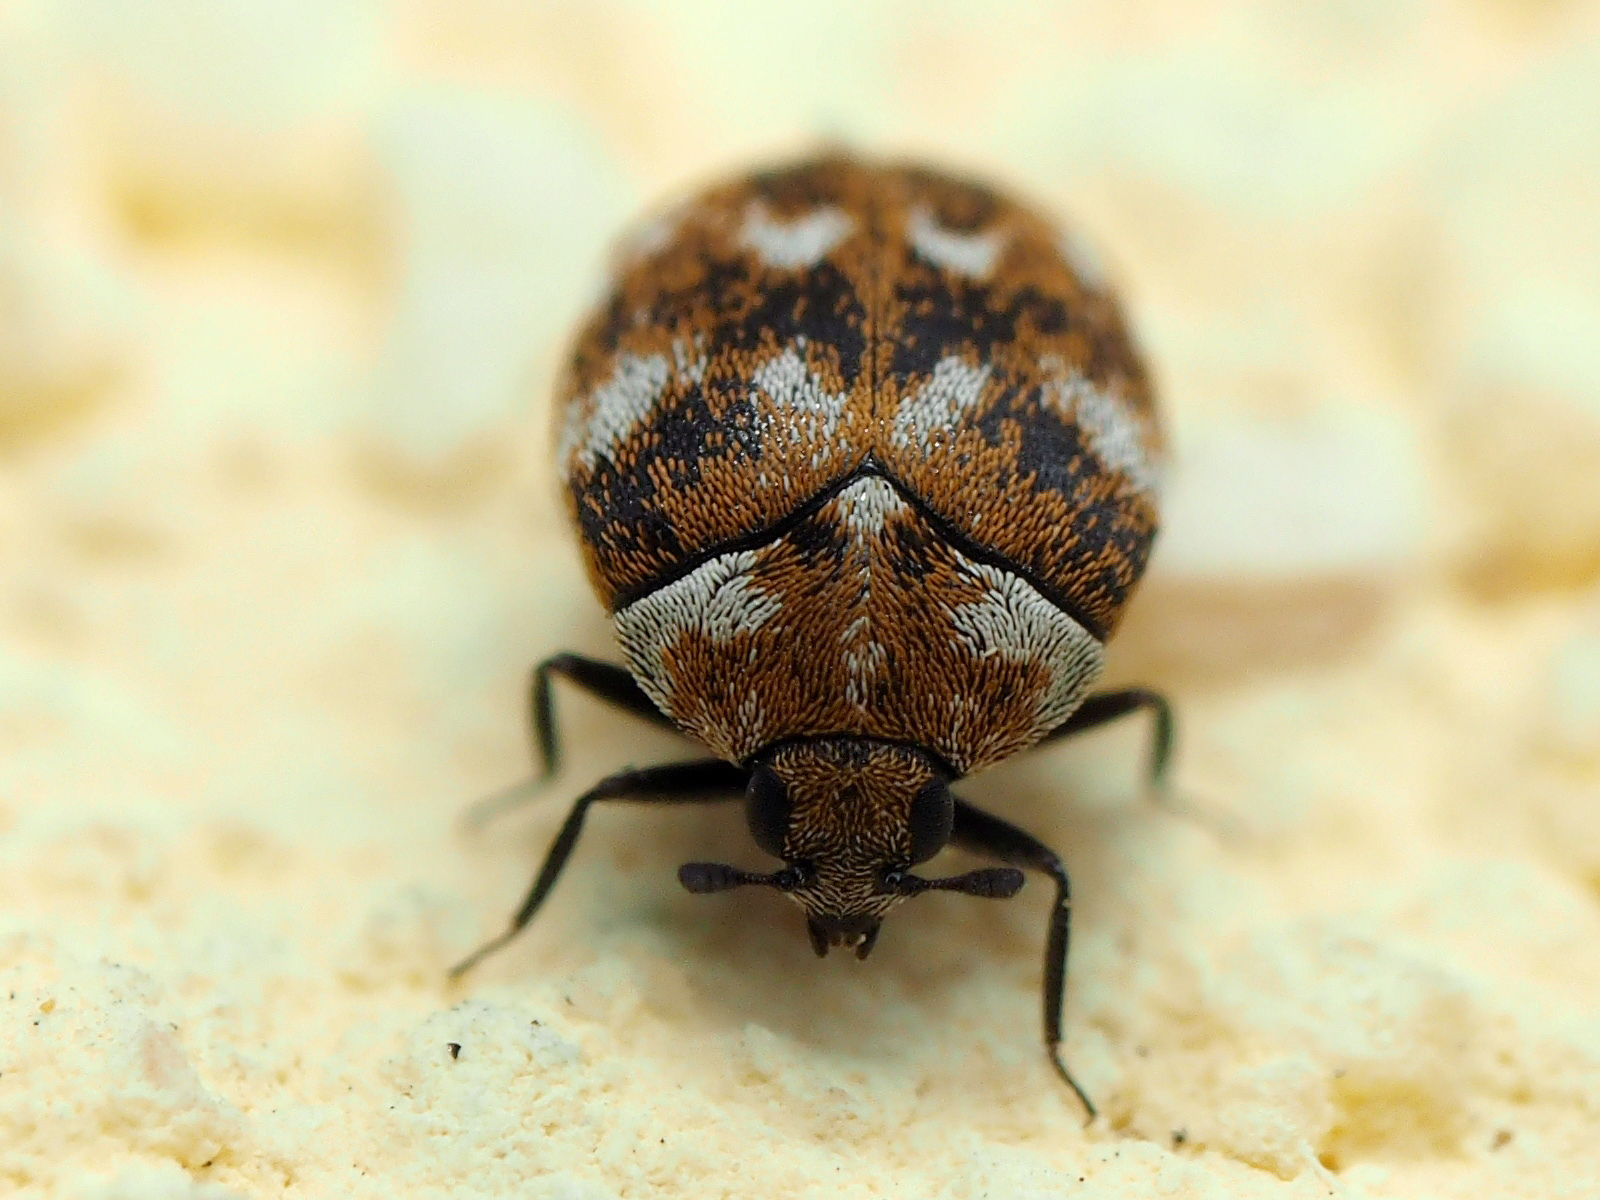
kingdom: Animalia
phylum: Arthropoda
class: Insecta
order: Coleoptera
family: Dermestidae
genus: Anthrenus
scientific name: Anthrenus verbasci
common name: Varied carpet beetle
